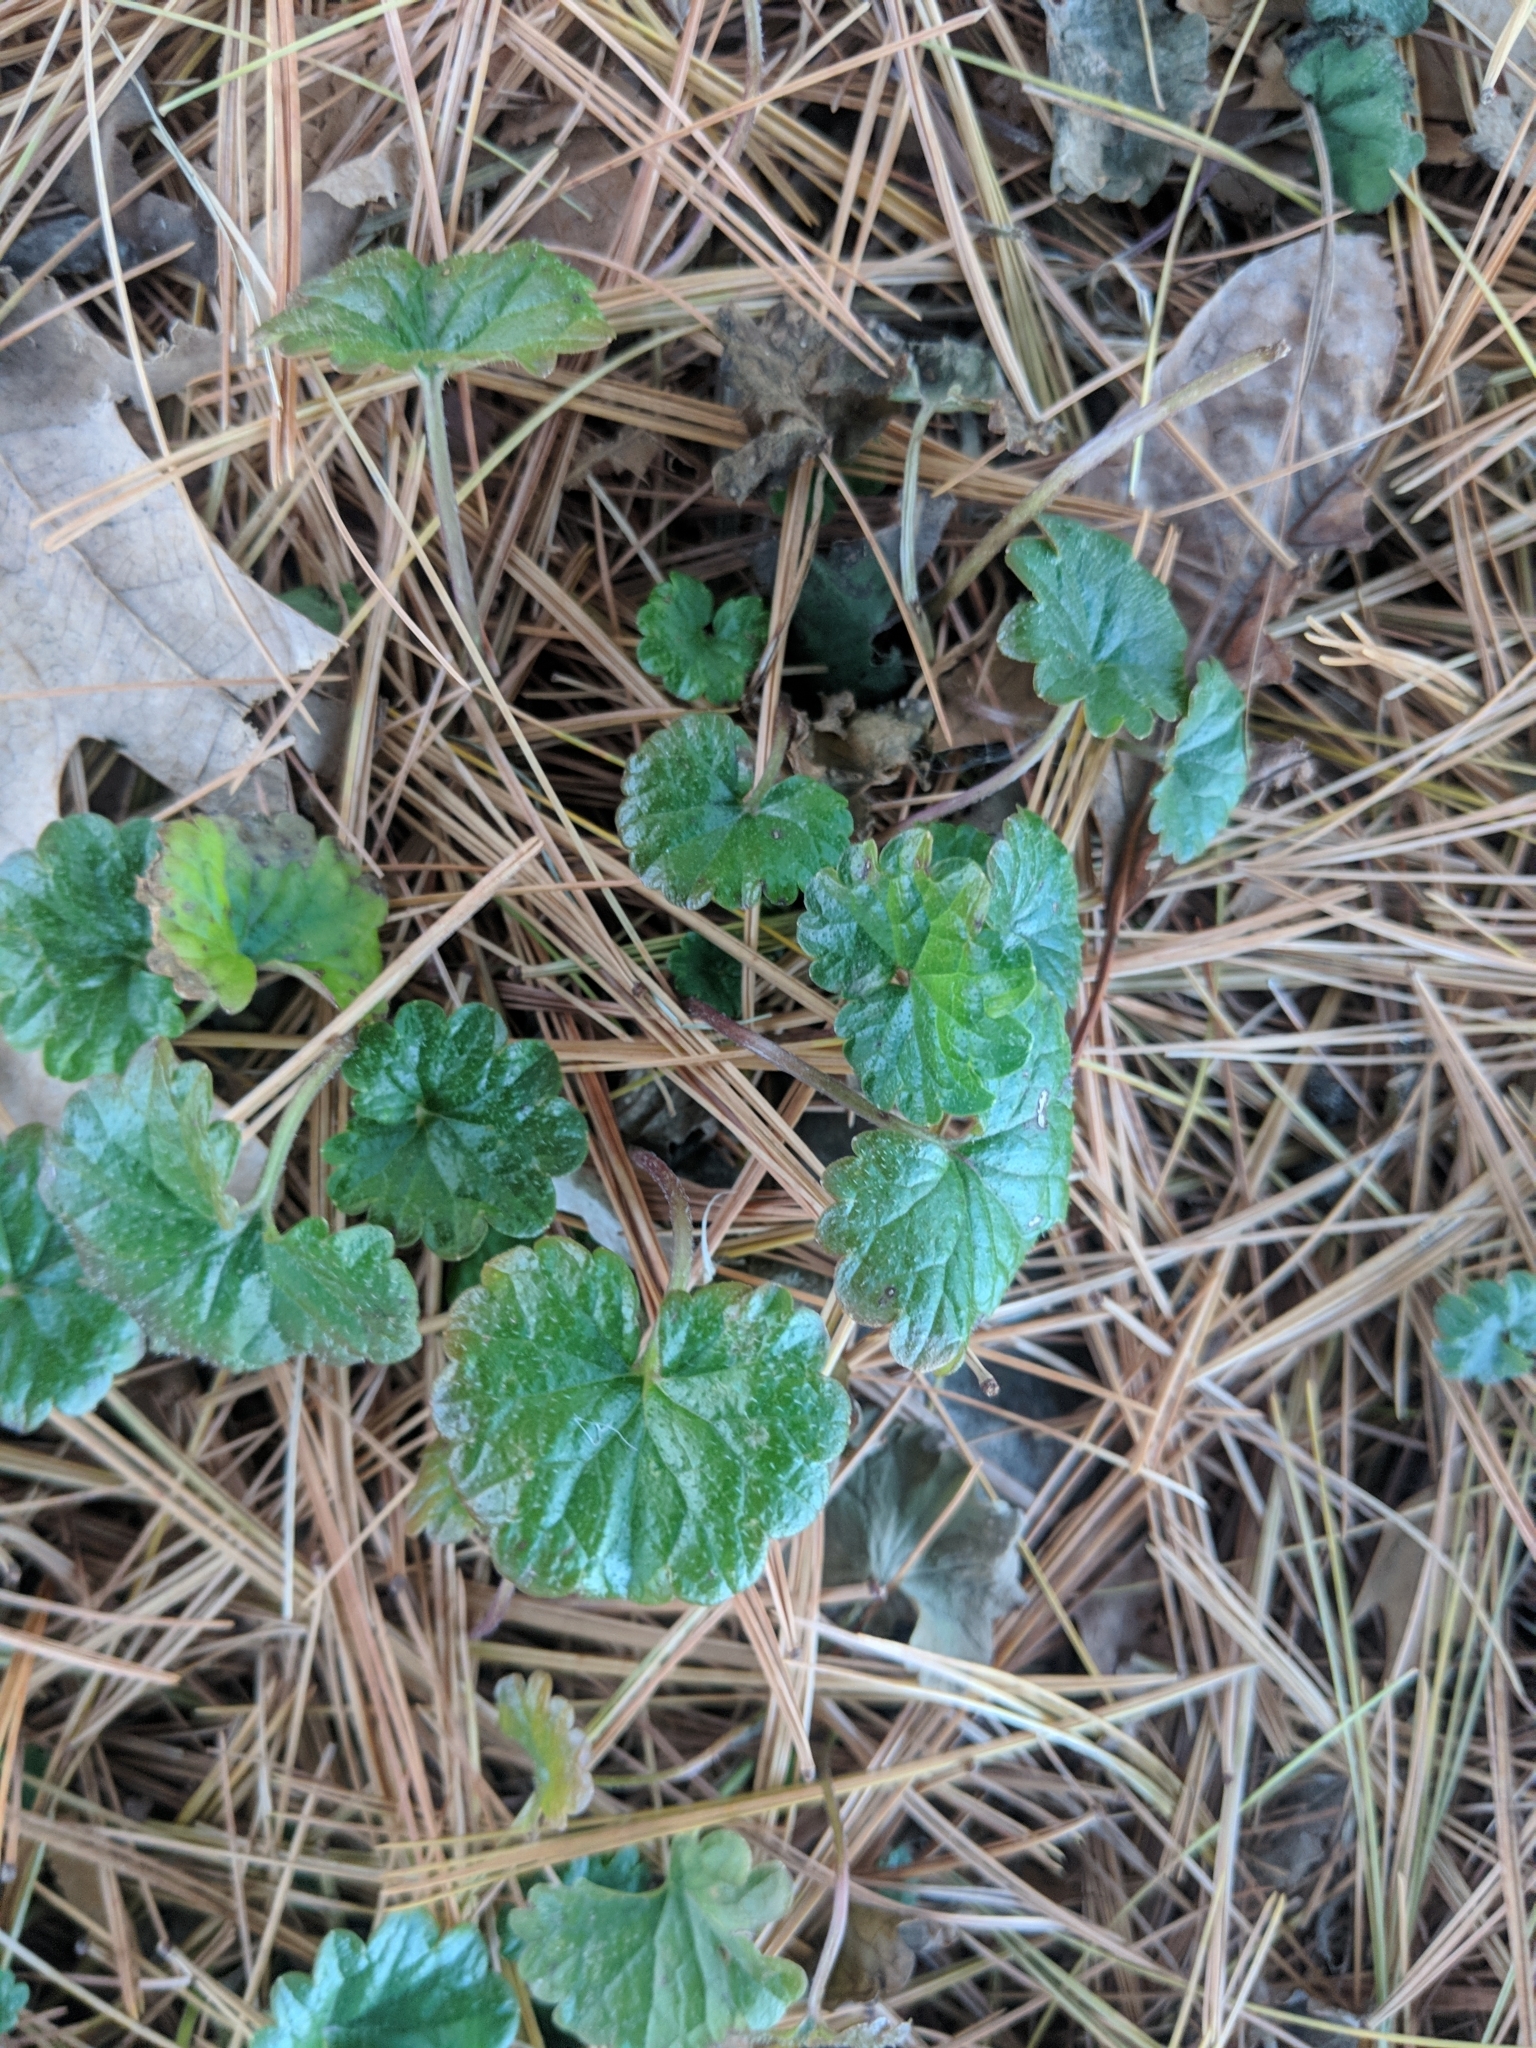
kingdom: Plantae
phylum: Tracheophyta
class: Magnoliopsida
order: Lamiales
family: Lamiaceae
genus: Glechoma
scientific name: Glechoma hederacea
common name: Ground ivy
